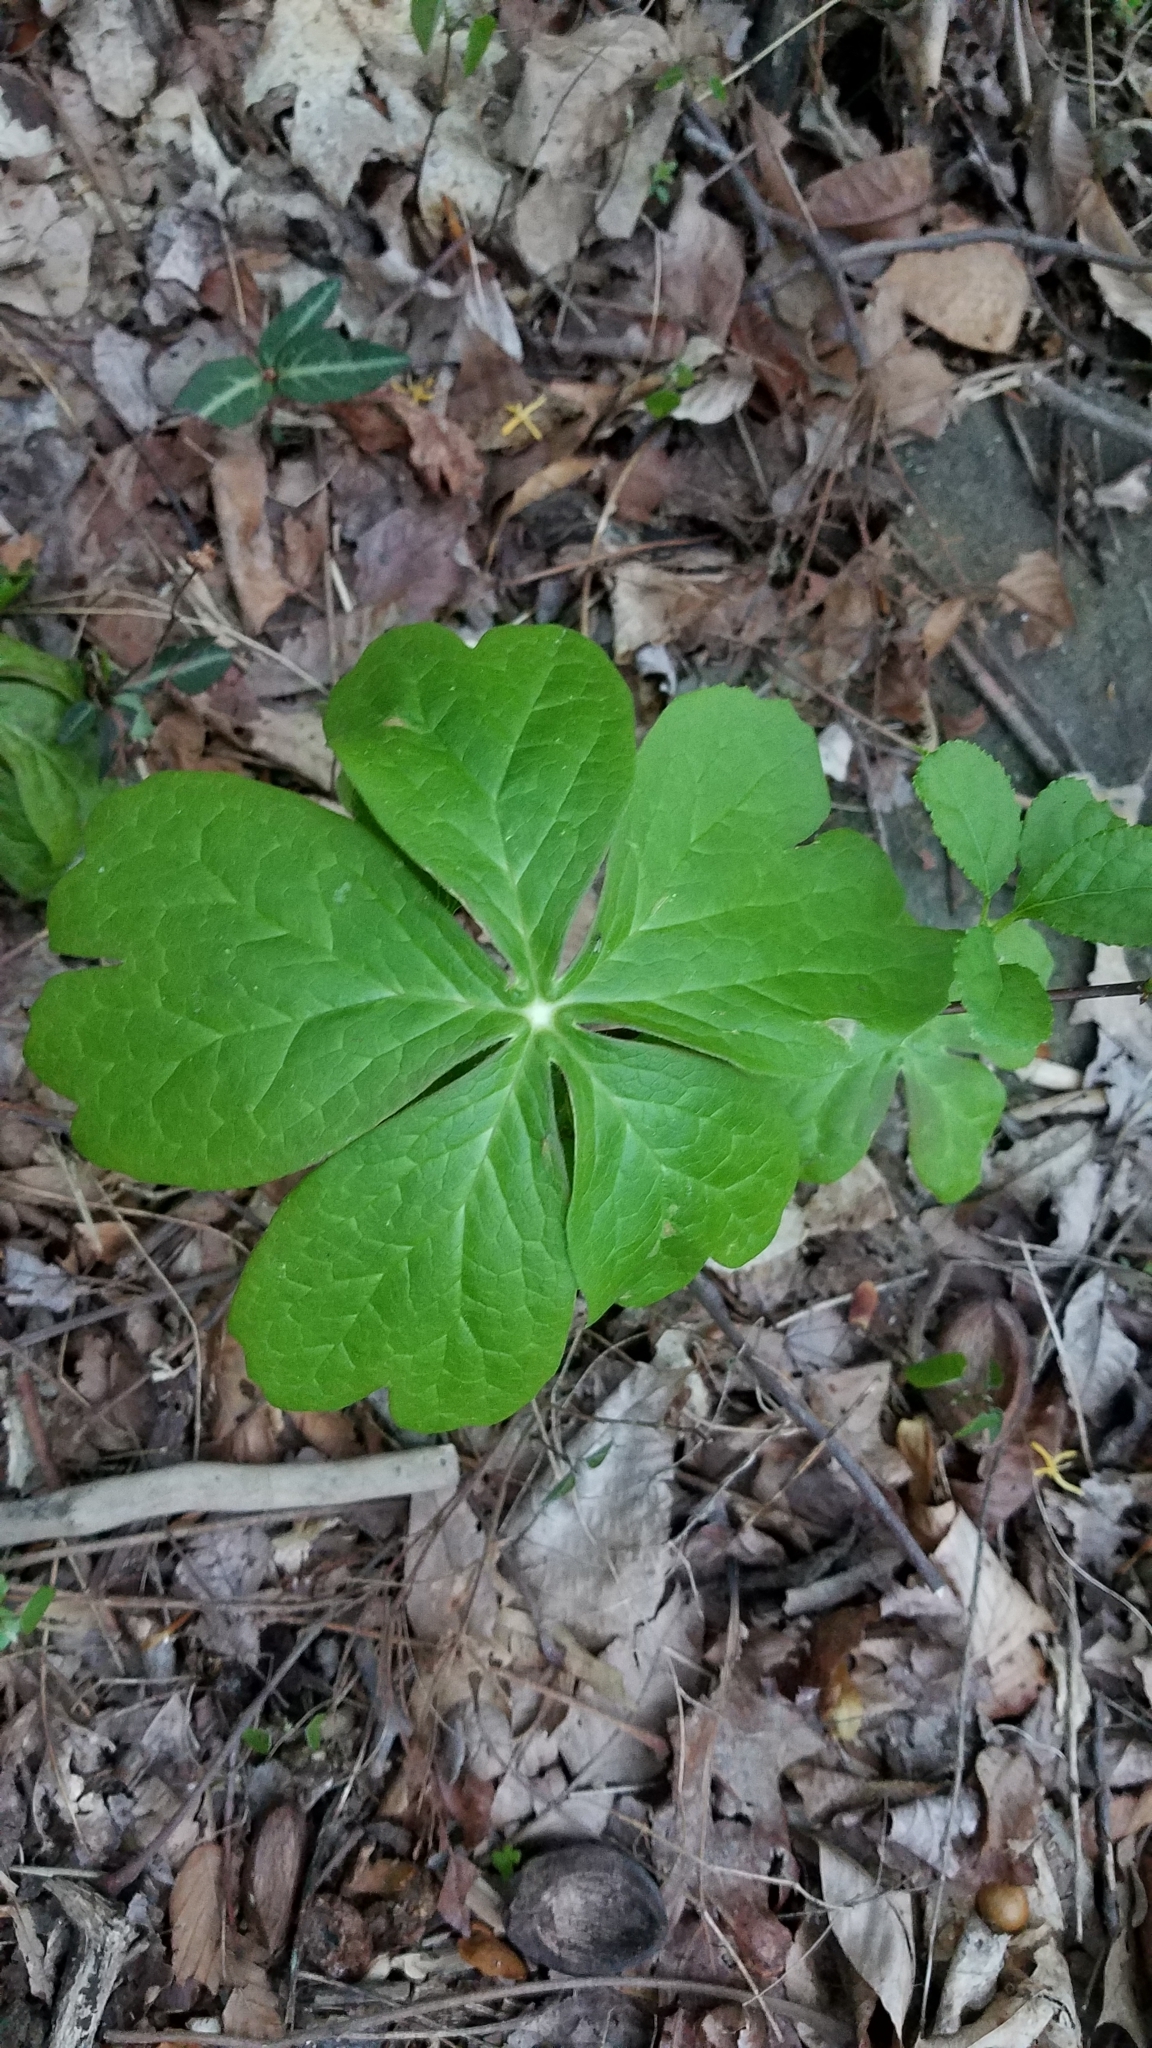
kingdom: Plantae
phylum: Tracheophyta
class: Magnoliopsida
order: Ranunculales
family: Berberidaceae
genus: Podophyllum
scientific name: Podophyllum peltatum
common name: Wild mandrake
